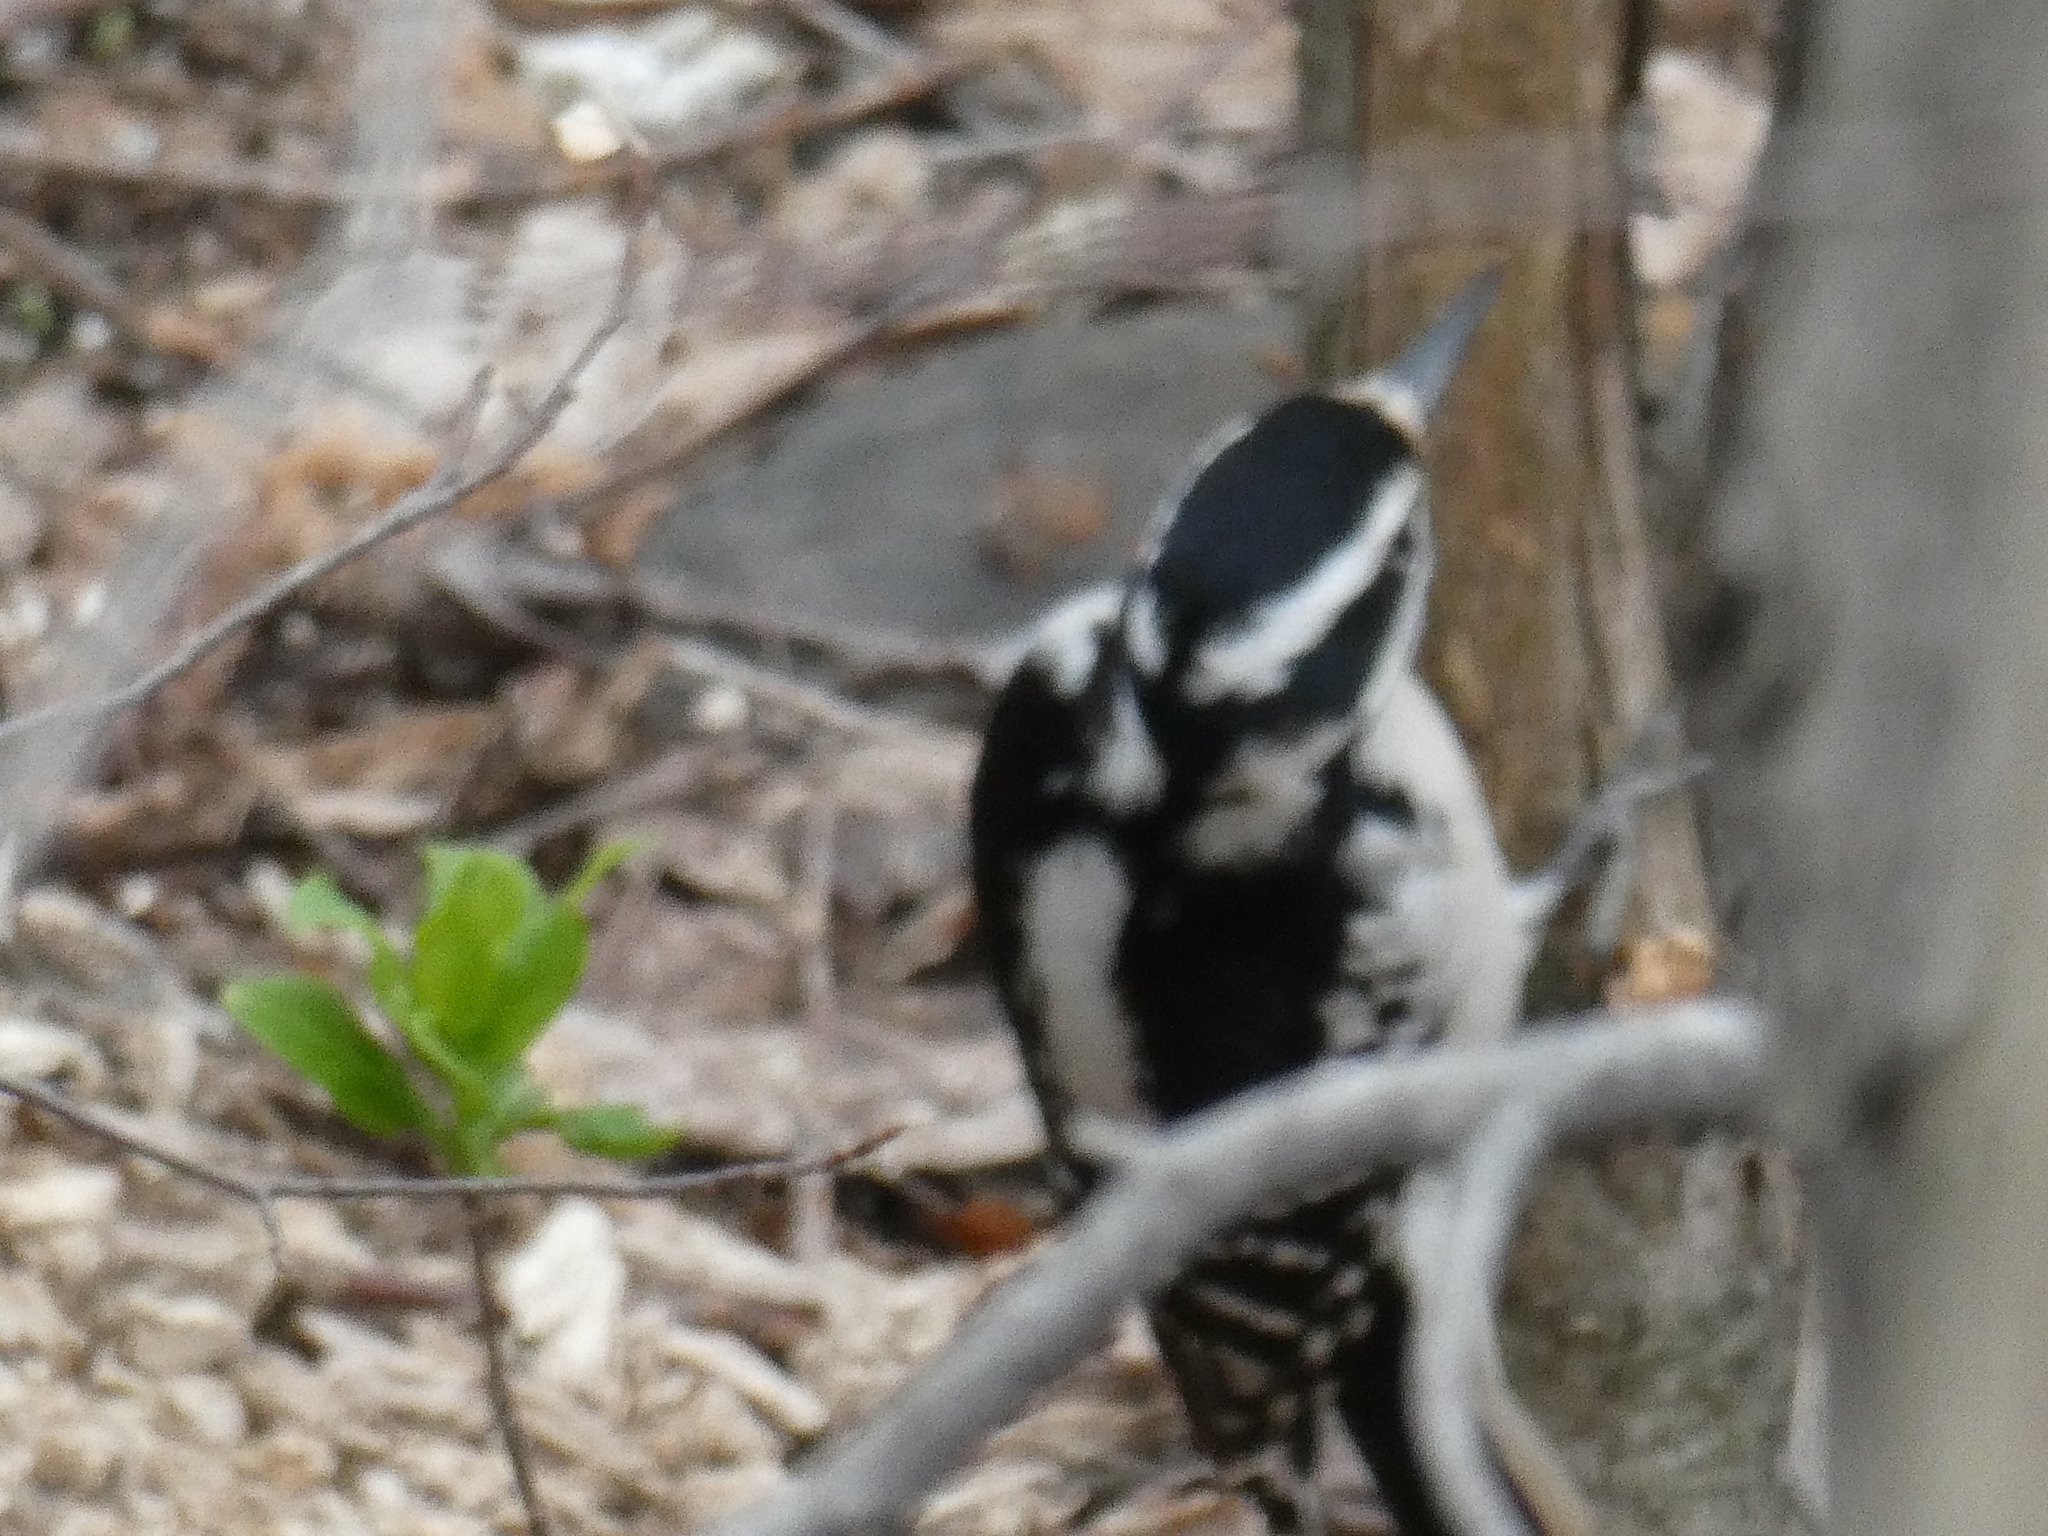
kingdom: Animalia
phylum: Chordata
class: Aves
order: Piciformes
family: Picidae
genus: Leuconotopicus
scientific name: Leuconotopicus villosus
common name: Hairy woodpecker
